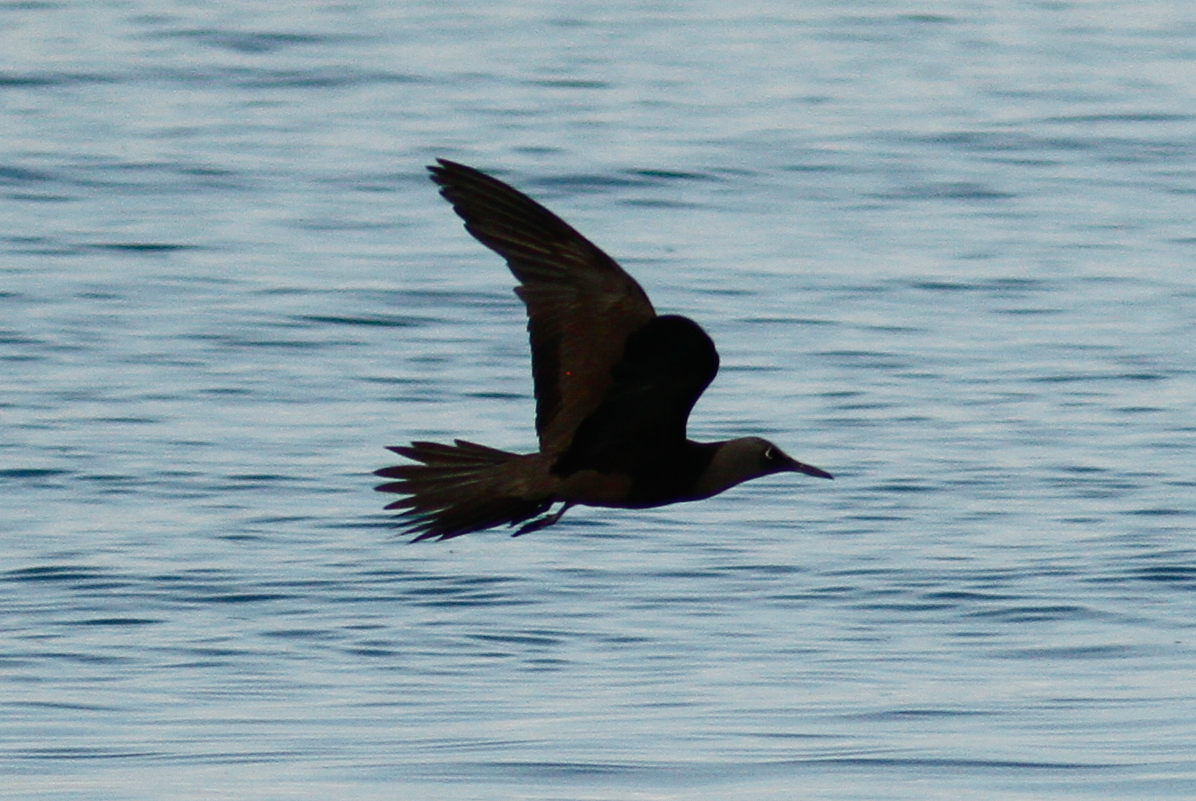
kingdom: Animalia
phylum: Chordata
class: Aves
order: Charadriiformes
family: Laridae
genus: Anous
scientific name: Anous stolidus
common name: Brown noddy
